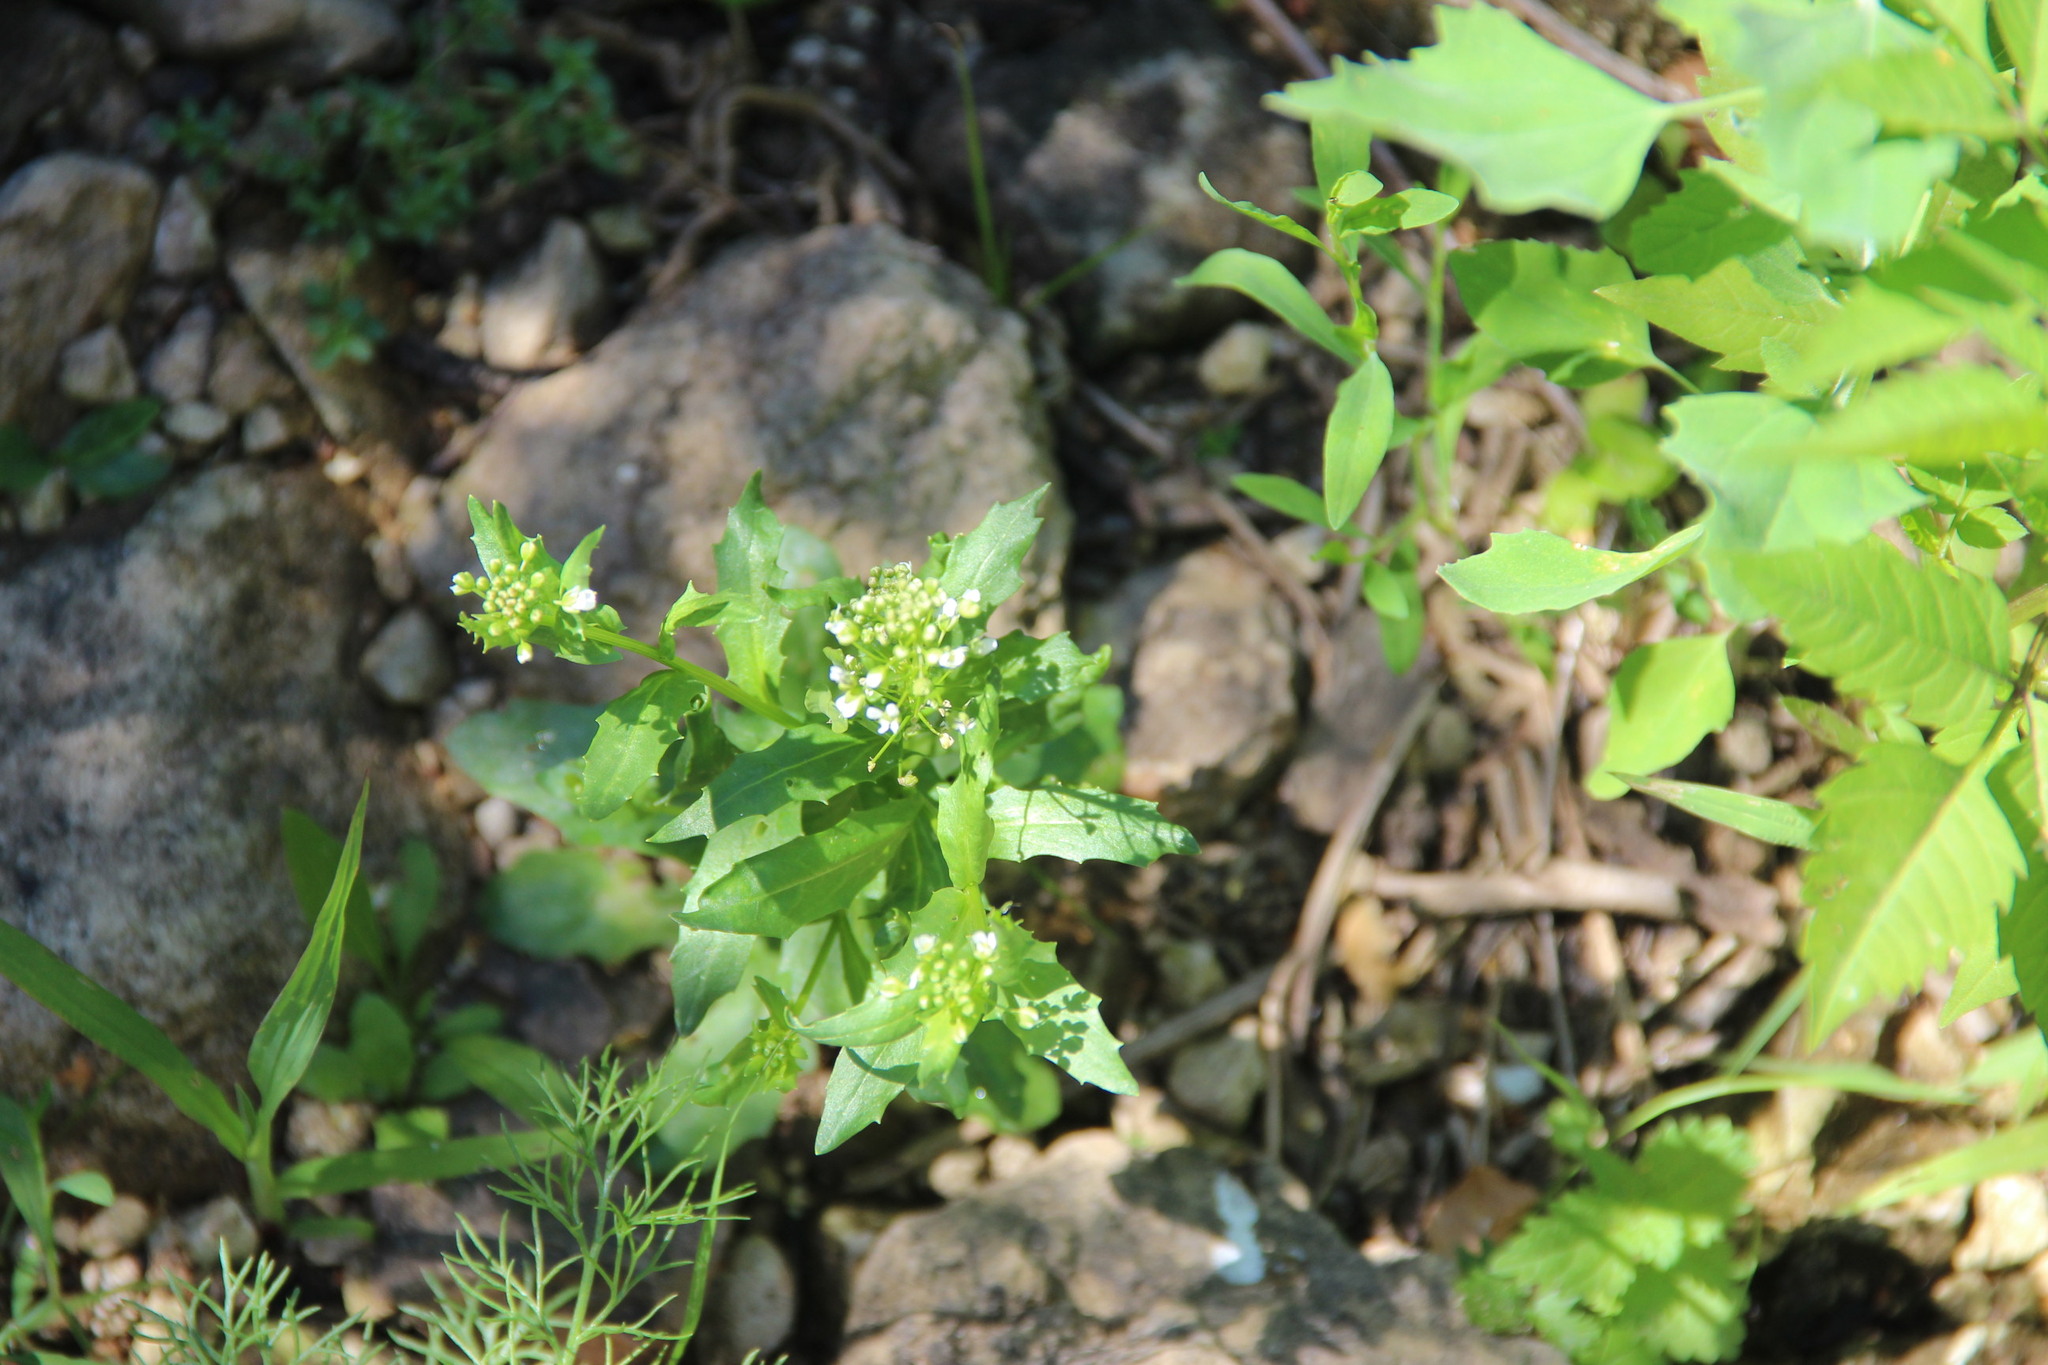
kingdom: Plantae
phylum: Tracheophyta
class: Magnoliopsida
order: Brassicales
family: Brassicaceae
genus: Thlaspi
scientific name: Thlaspi arvense
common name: Field pennycress
